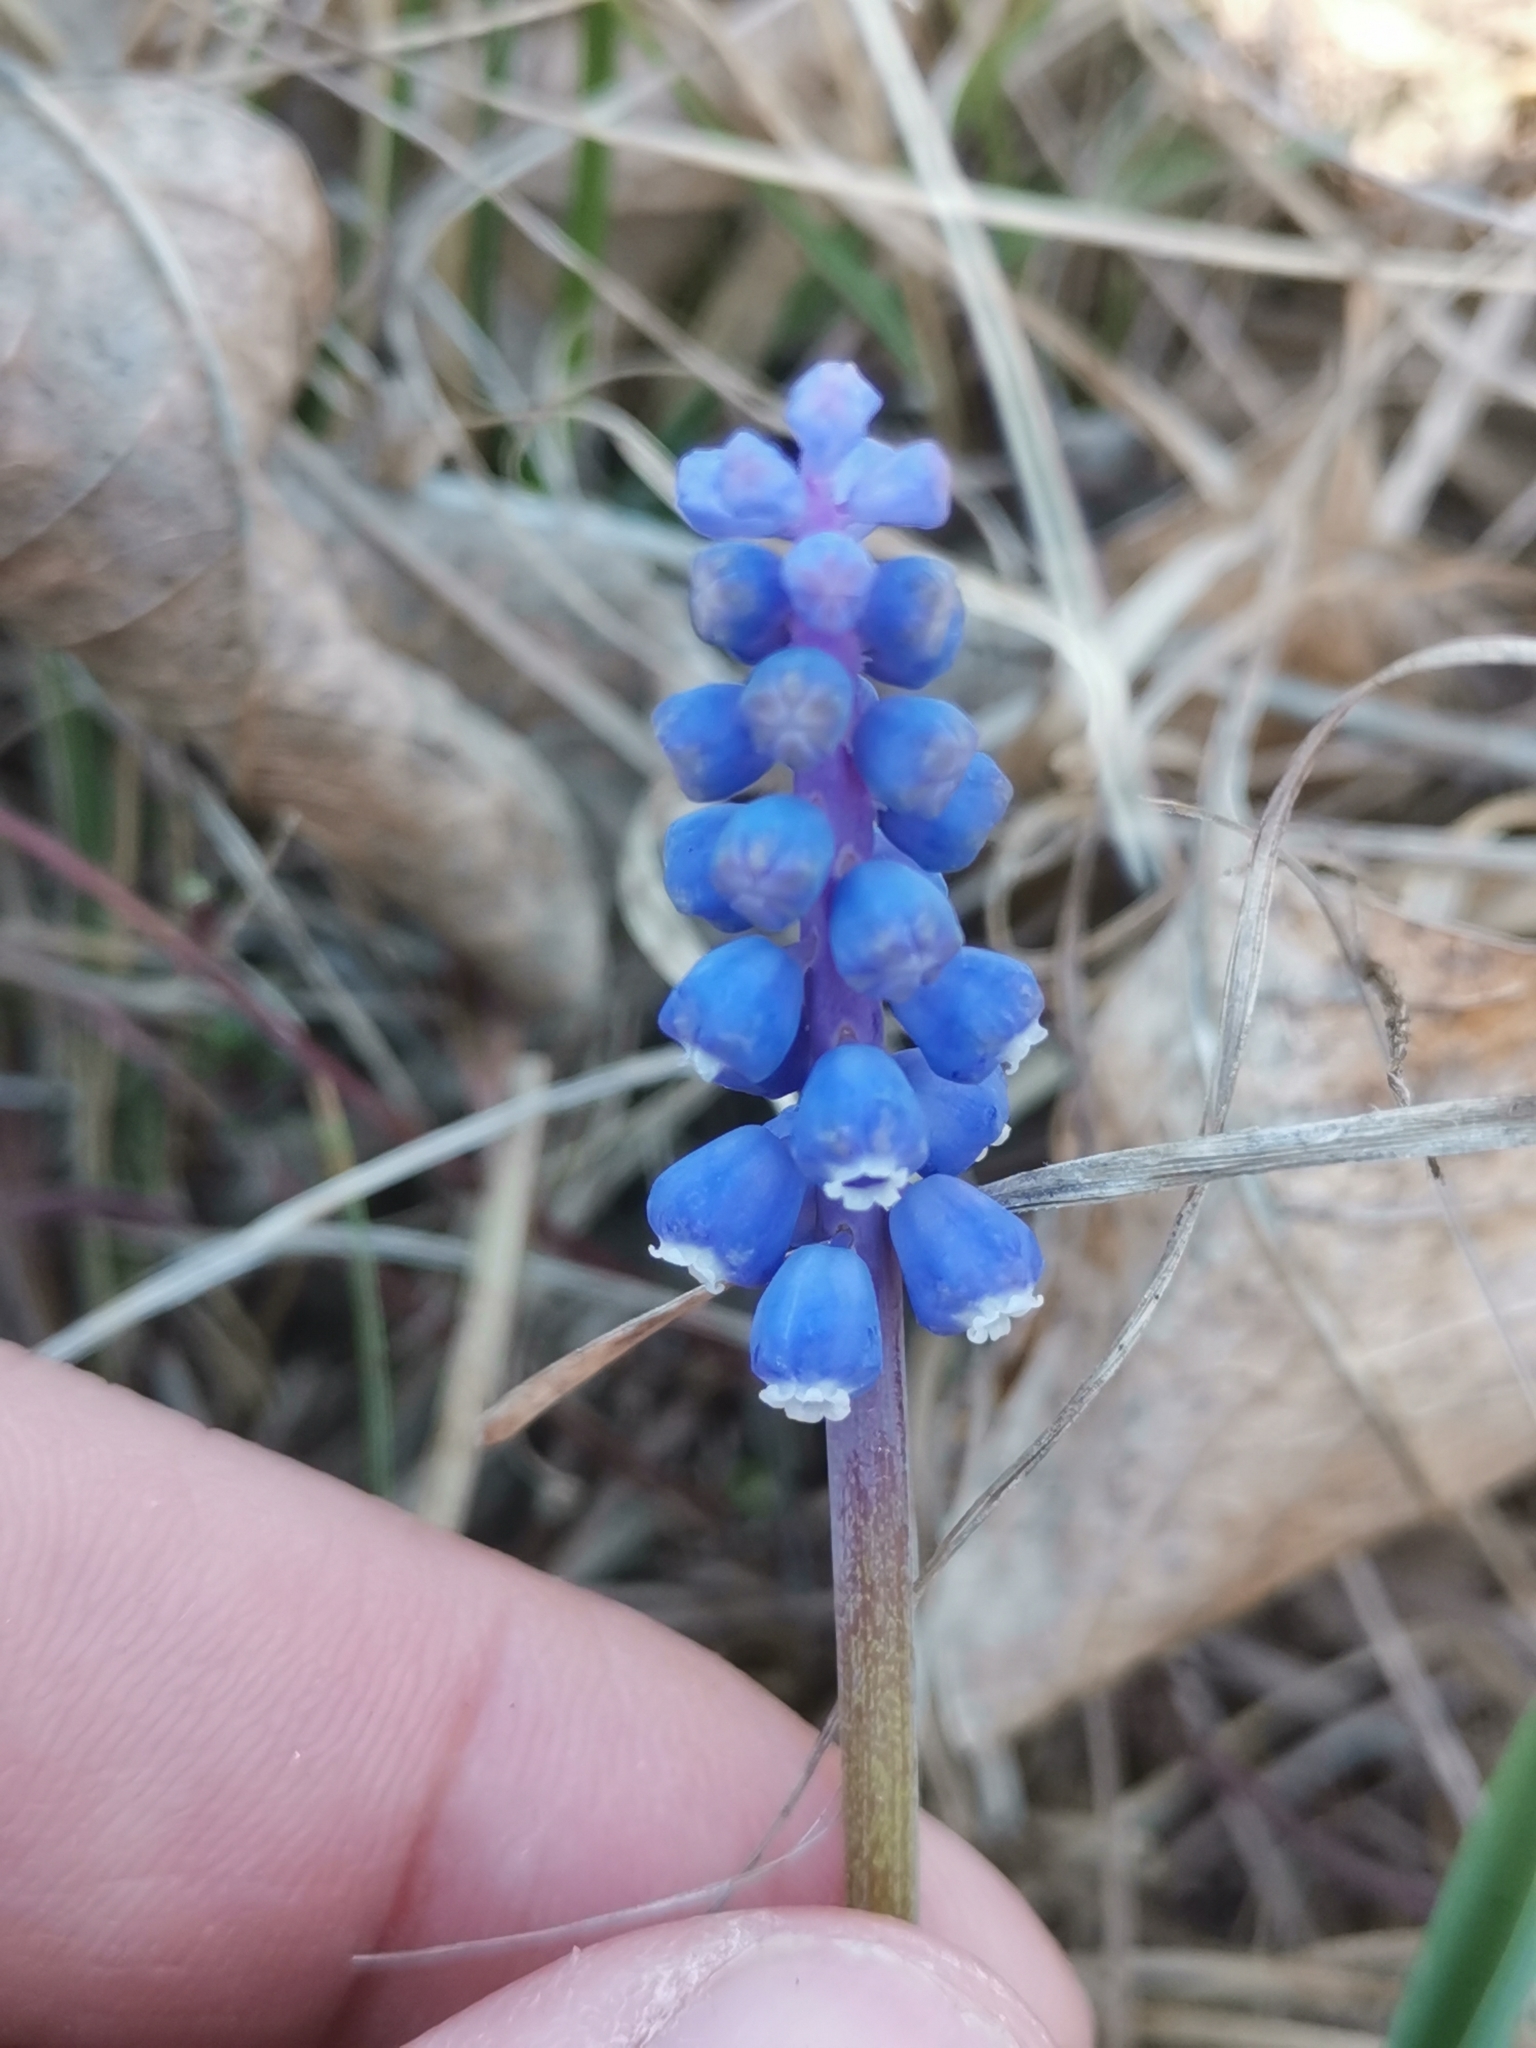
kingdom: Plantae
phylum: Tracheophyta
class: Liliopsida
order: Asparagales
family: Asparagaceae
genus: Muscari
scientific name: Muscari botryoides
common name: Compact grape-hyacinth
